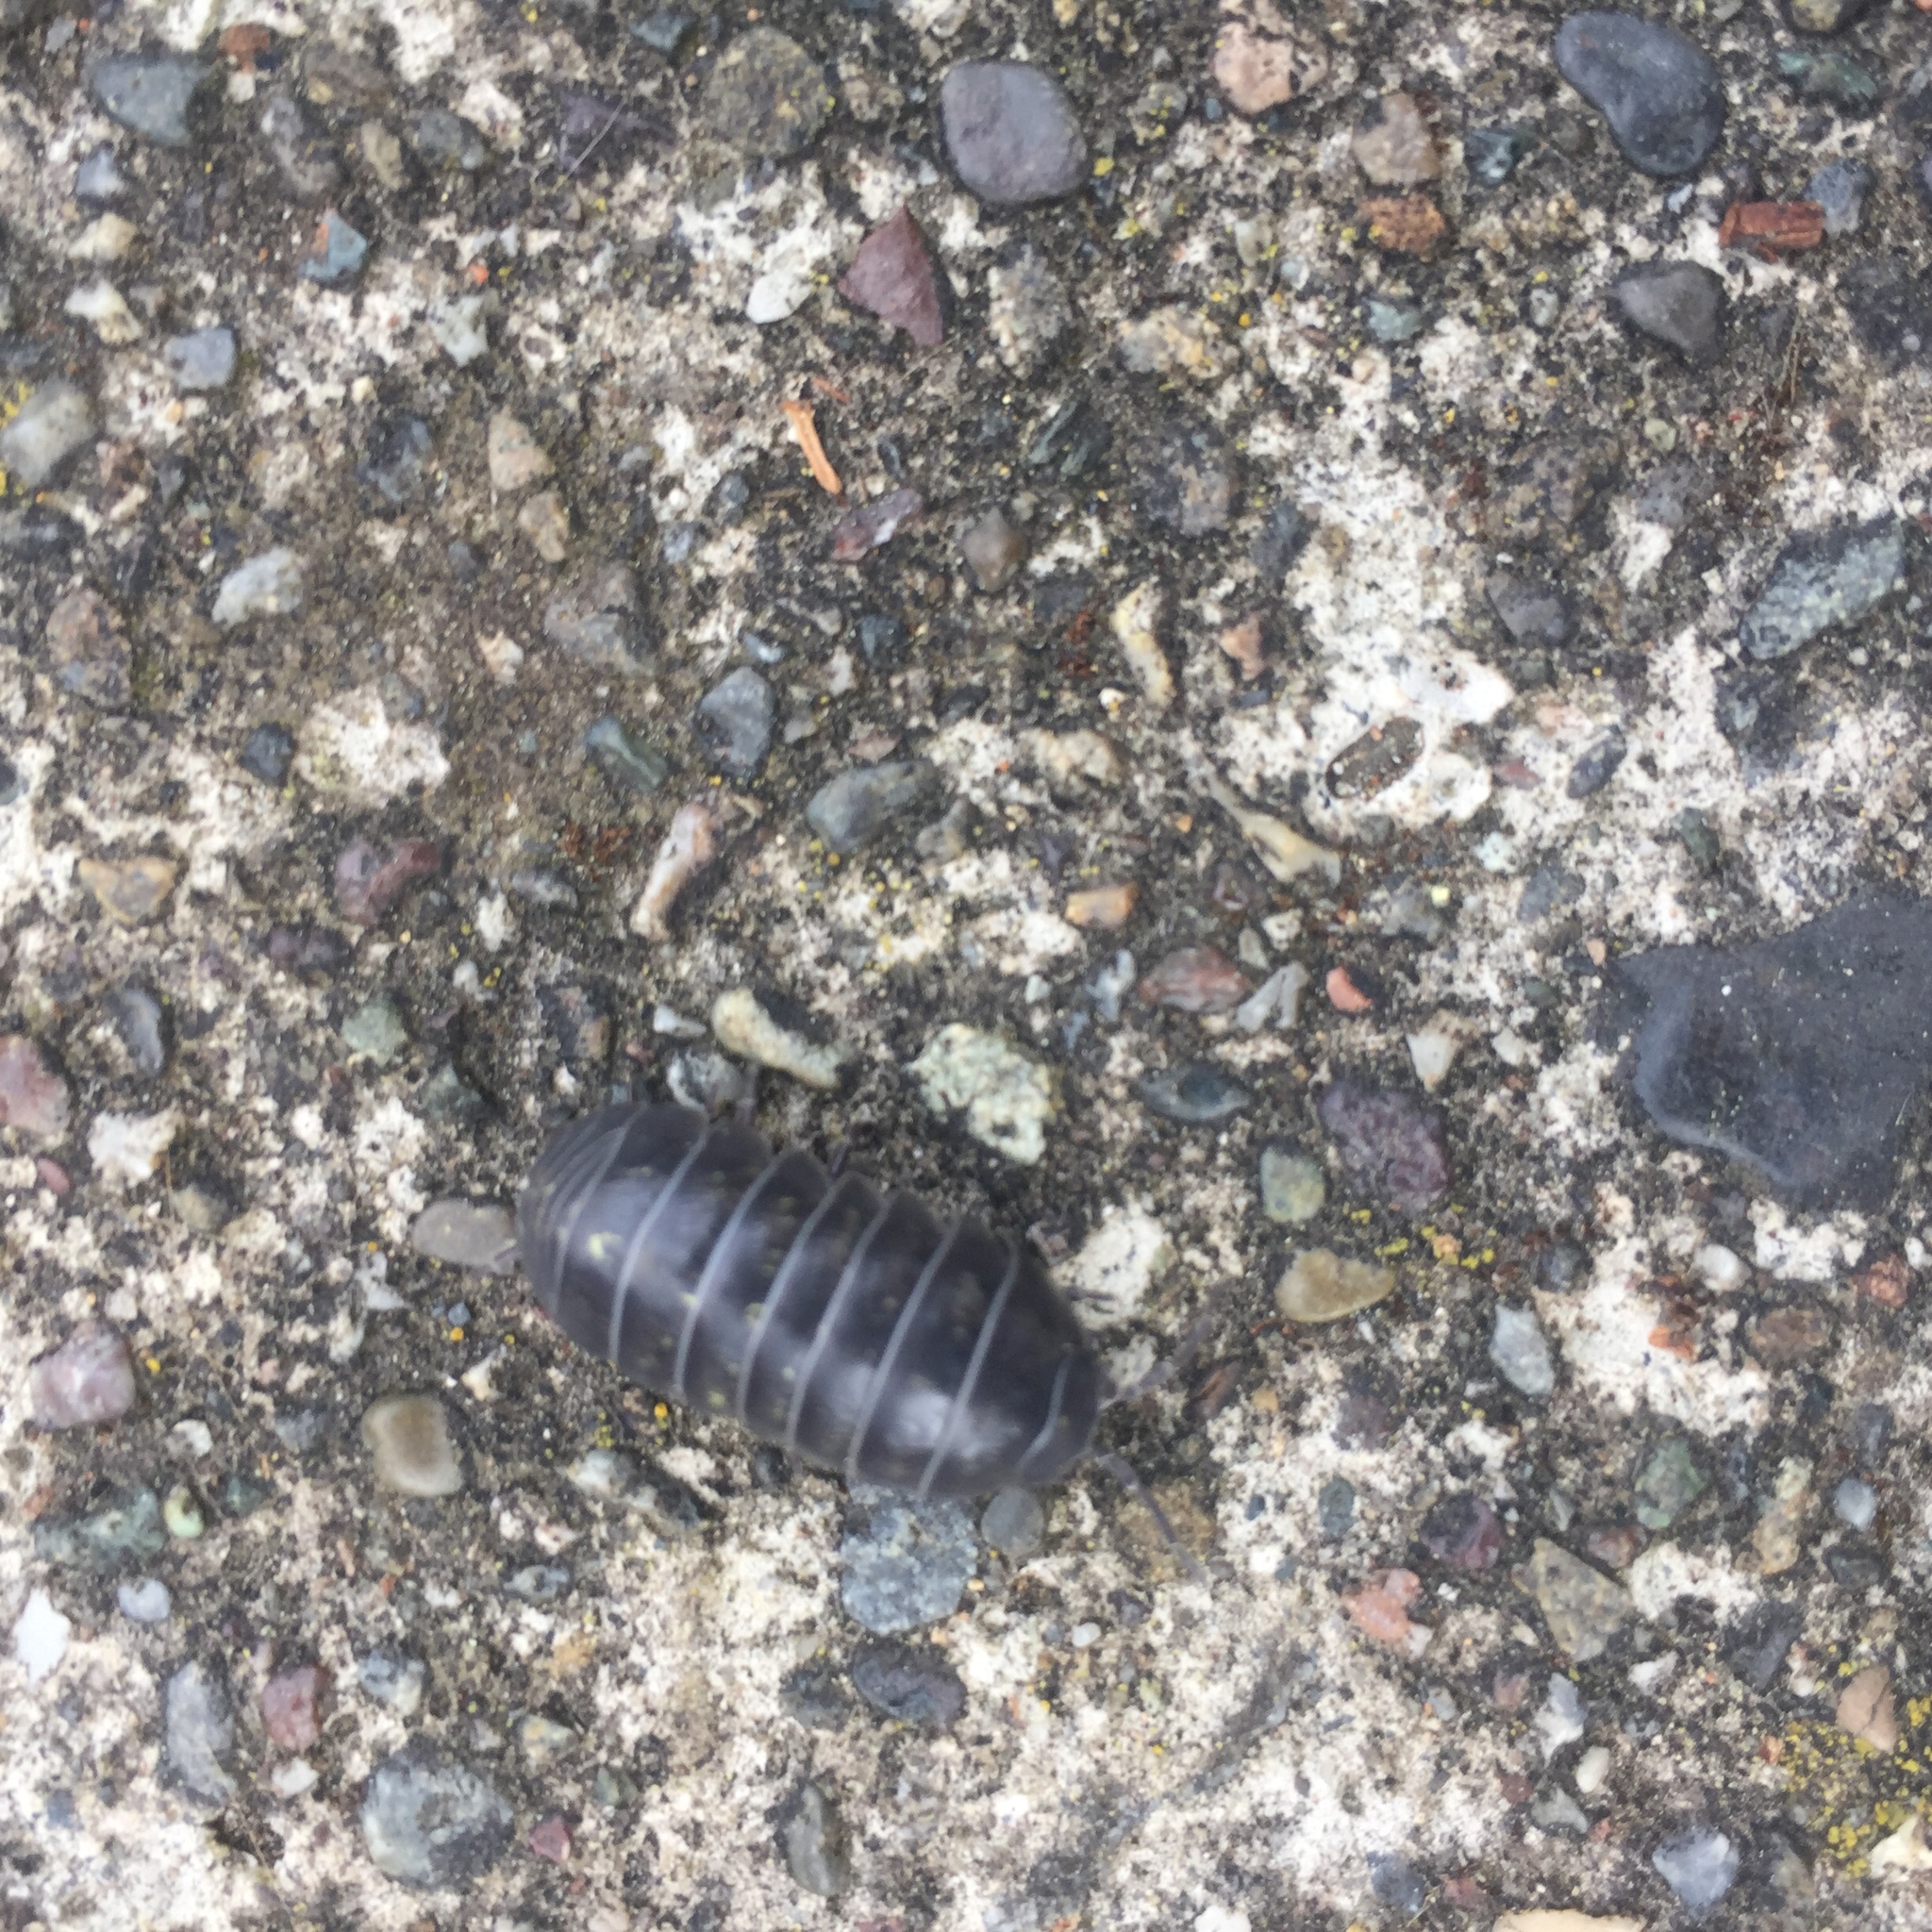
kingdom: Animalia
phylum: Arthropoda
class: Malacostraca
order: Isopoda
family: Armadillidiidae
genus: Armadillidium
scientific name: Armadillidium vulgare
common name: Common pill woodlouse
